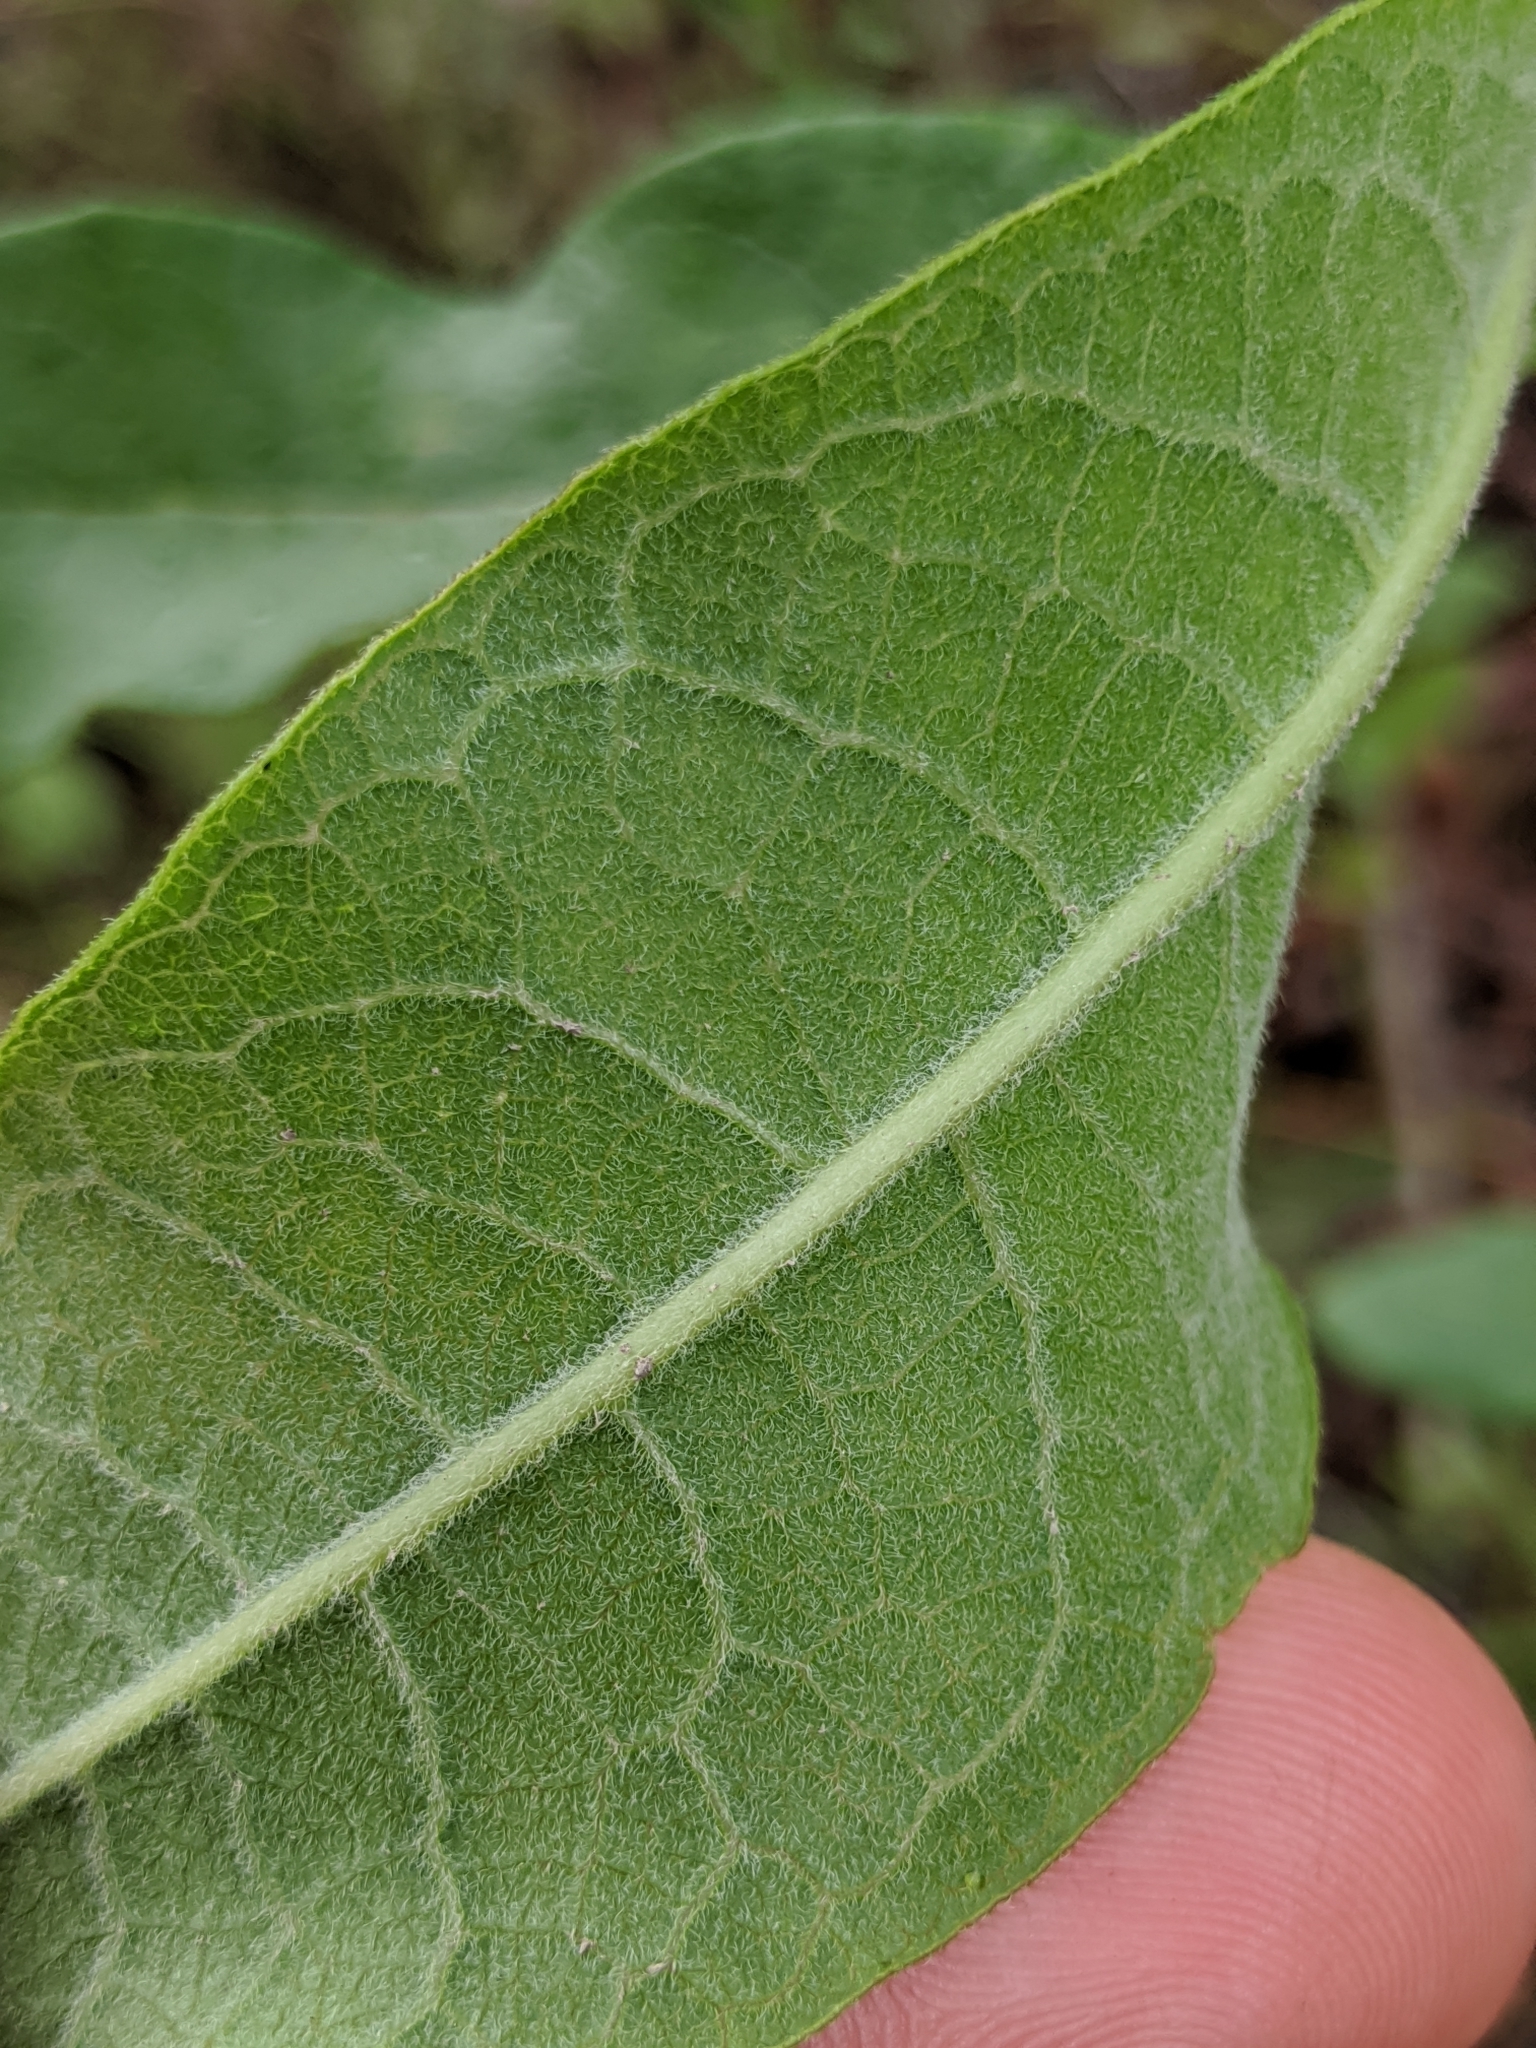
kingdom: Plantae
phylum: Tracheophyta
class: Magnoliopsida
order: Gentianales
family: Apocynaceae
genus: Asclepias
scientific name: Asclepias tomentosa
